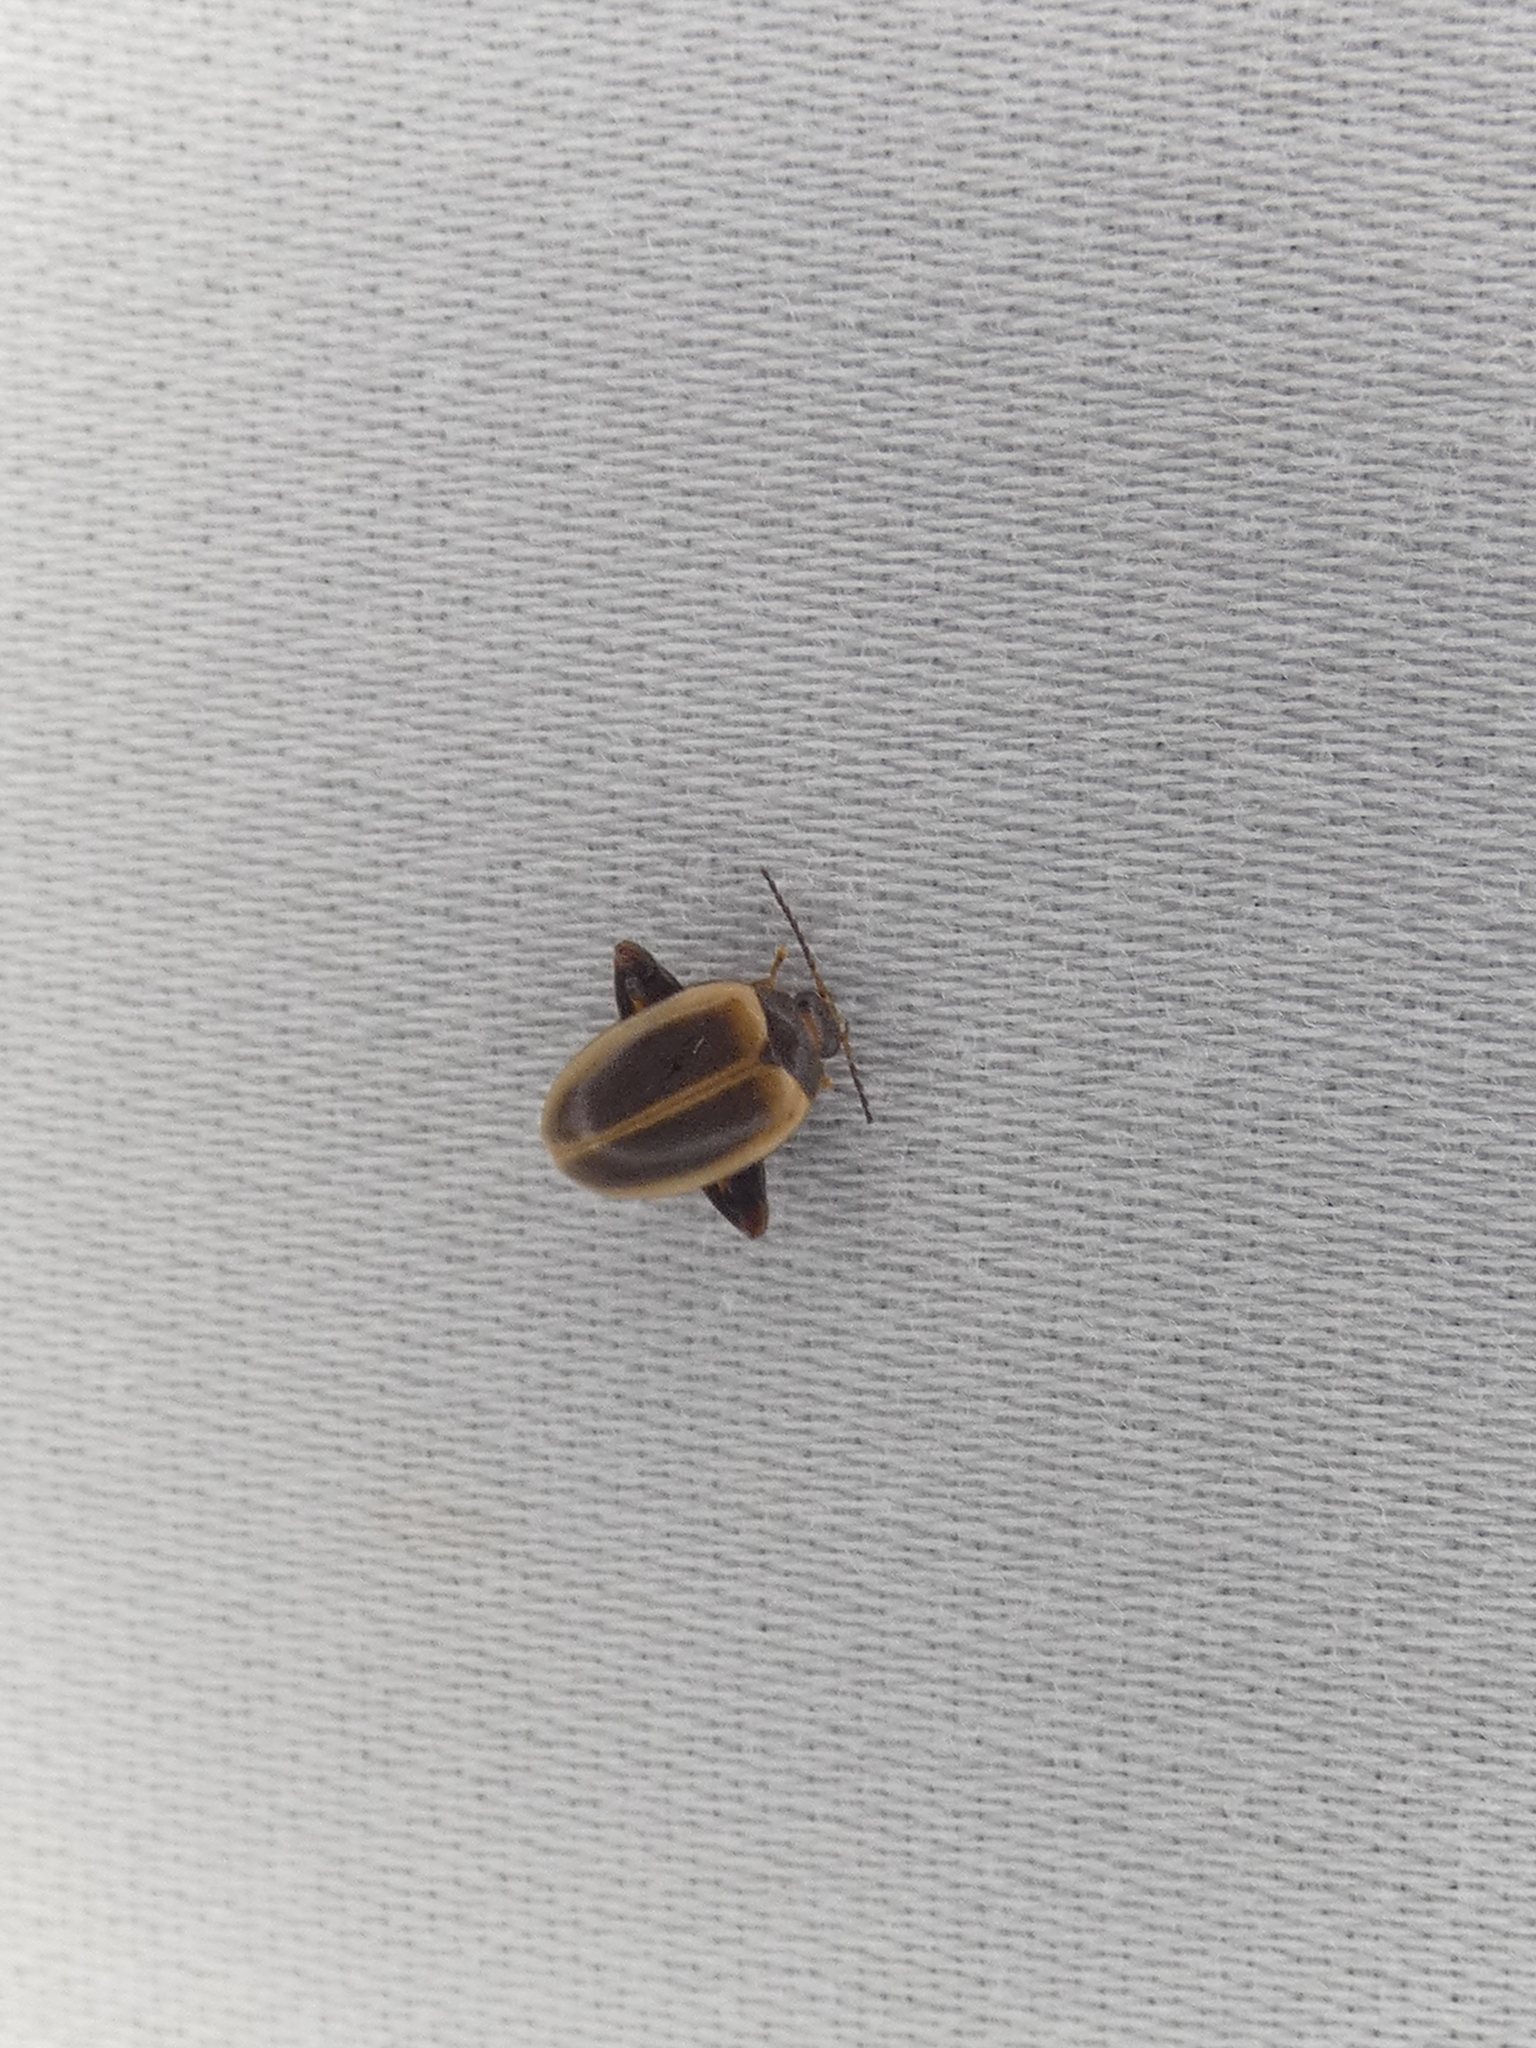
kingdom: Animalia
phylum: Arthropoda
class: Insecta
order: Coleoptera
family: Scirtidae
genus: Ora
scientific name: Ora discoidea
